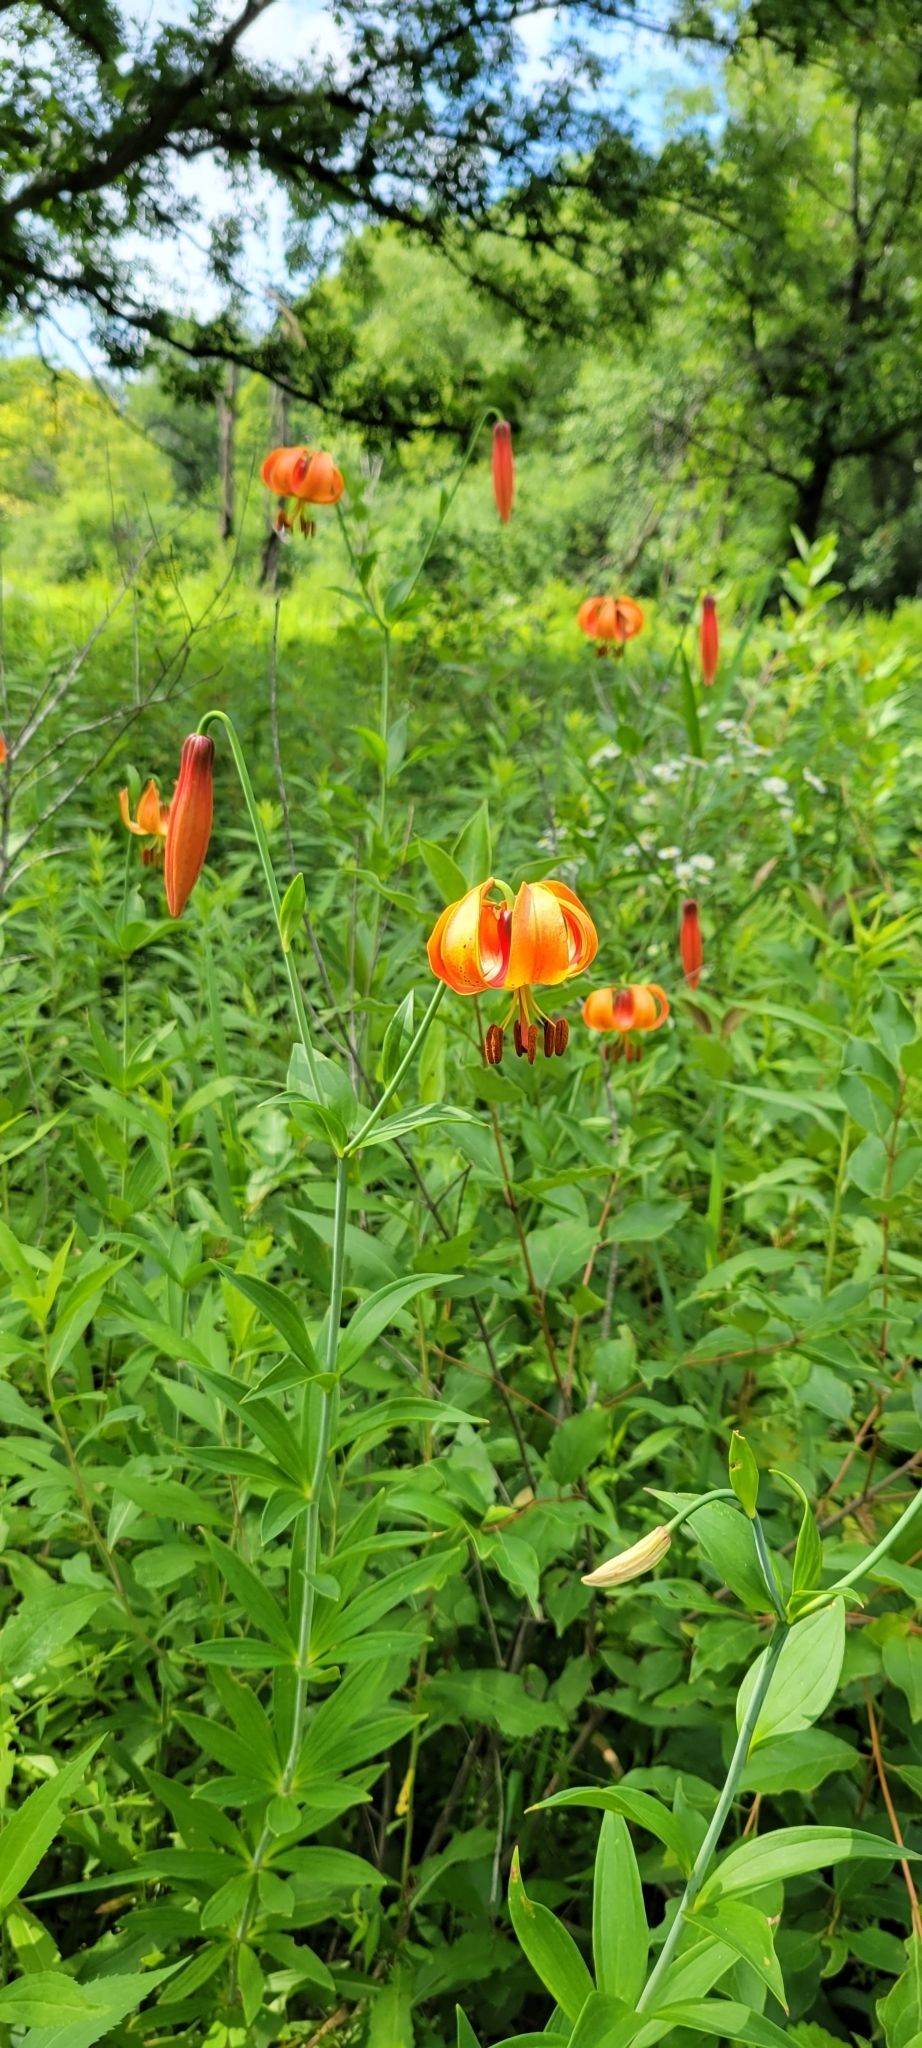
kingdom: Plantae
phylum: Tracheophyta
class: Liliopsida
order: Liliales
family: Liliaceae
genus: Lilium
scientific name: Lilium michiganense
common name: Michigan lily
